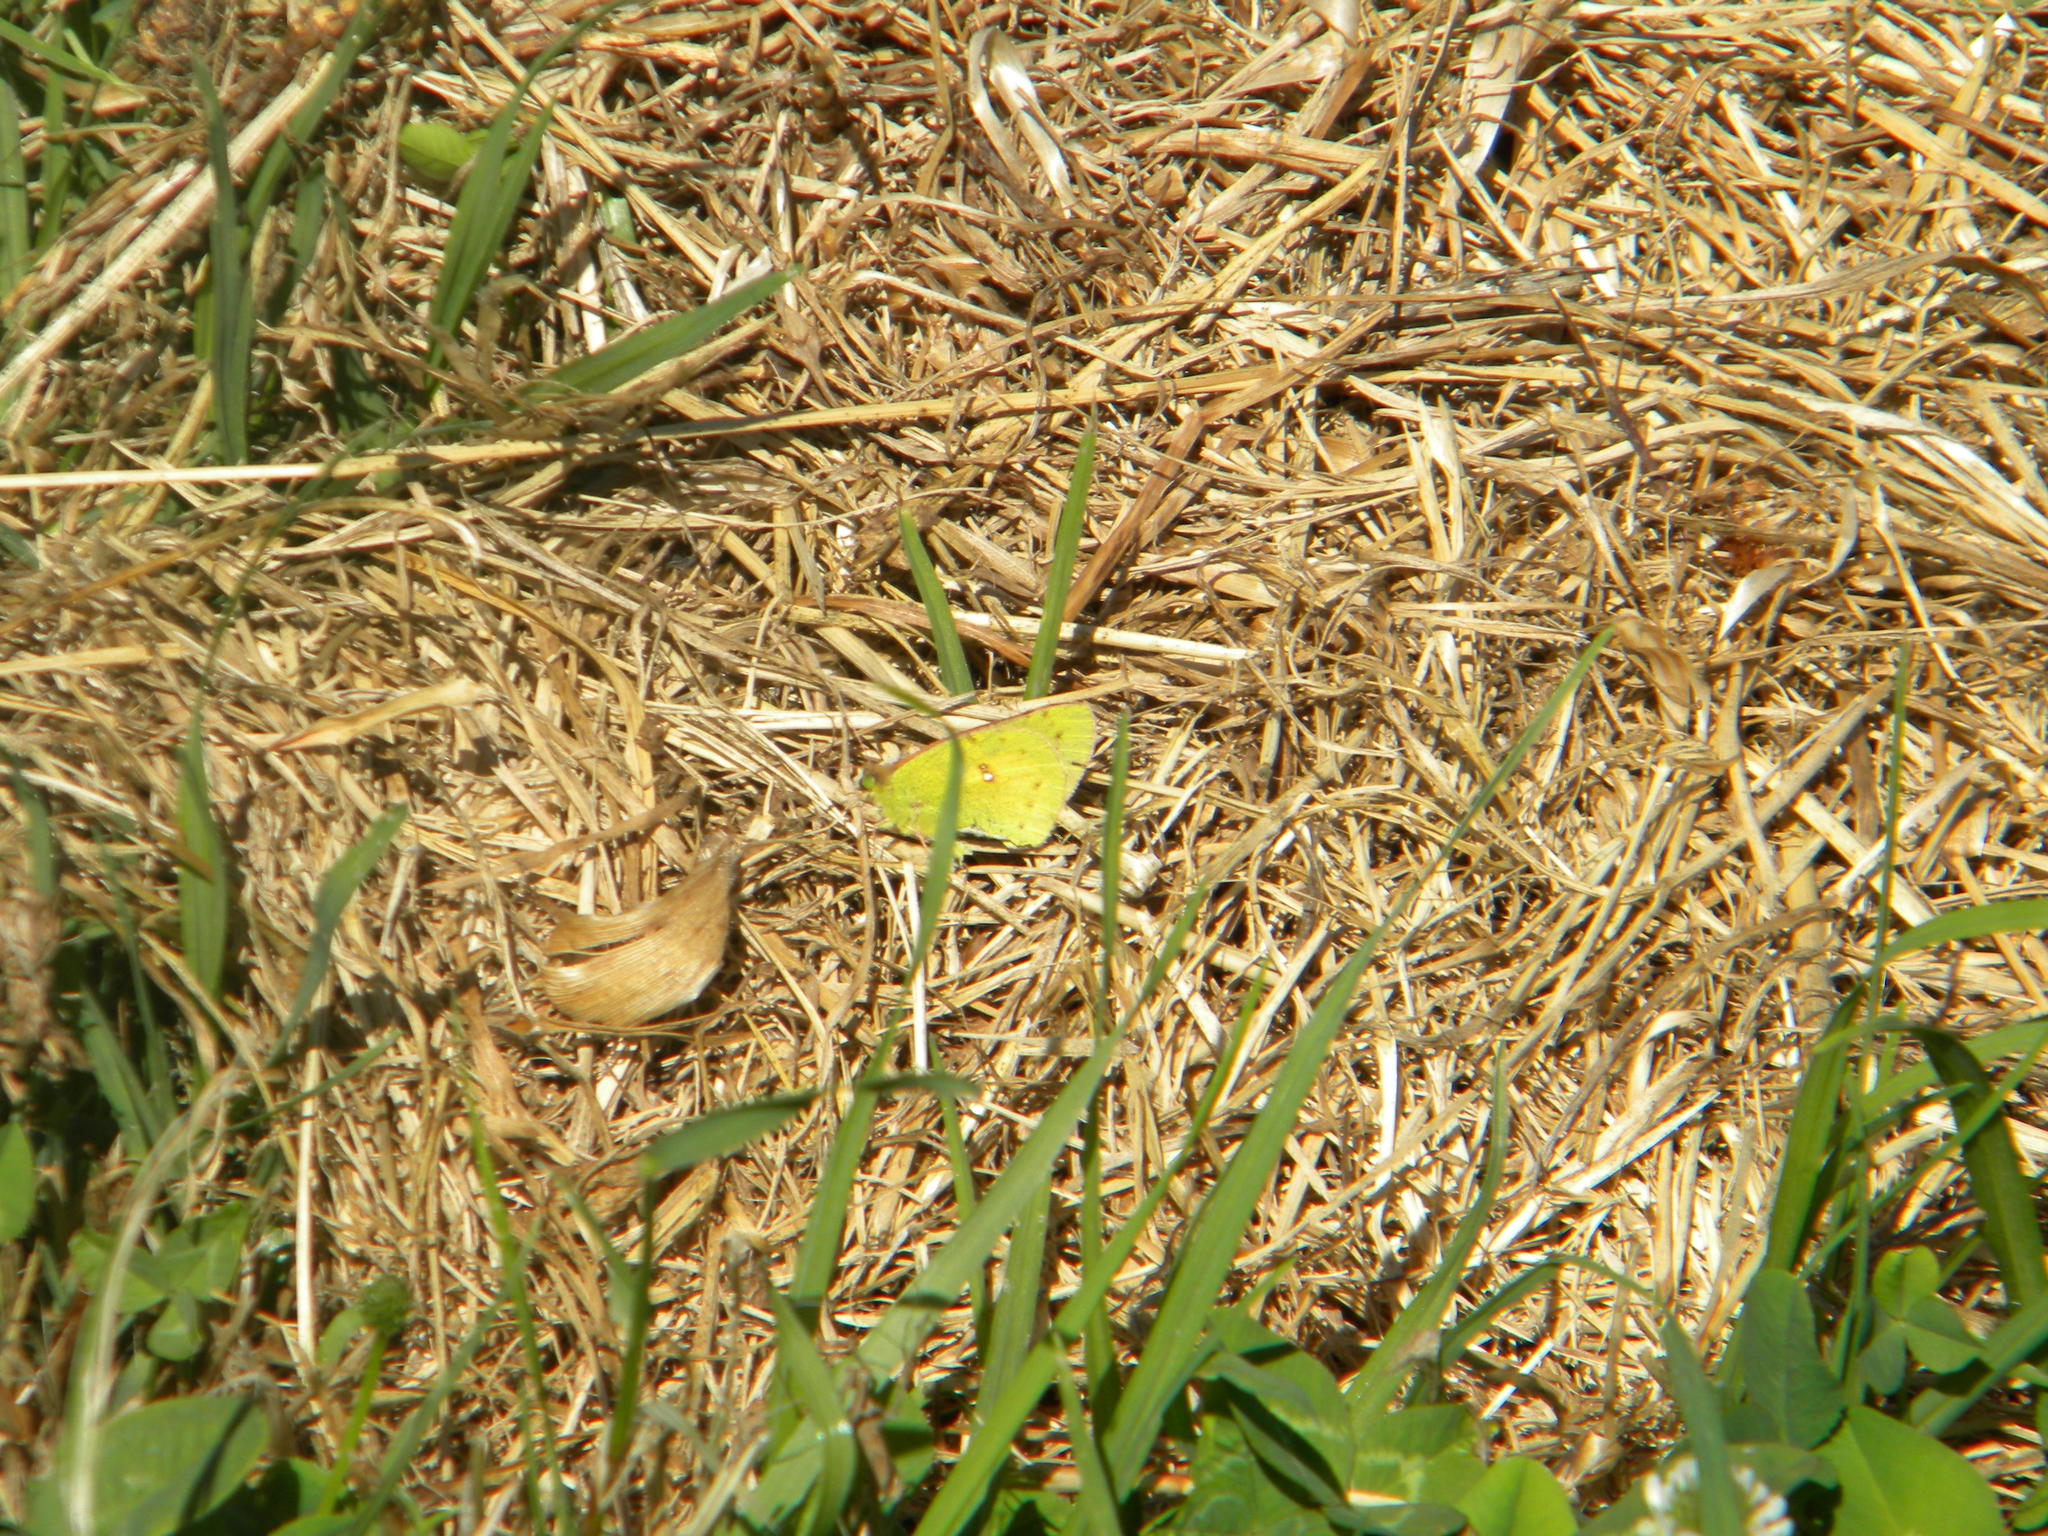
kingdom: Animalia
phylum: Arthropoda
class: Insecta
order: Lepidoptera
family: Pieridae
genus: Colias
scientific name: Colias electo
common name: African clouded yellow
